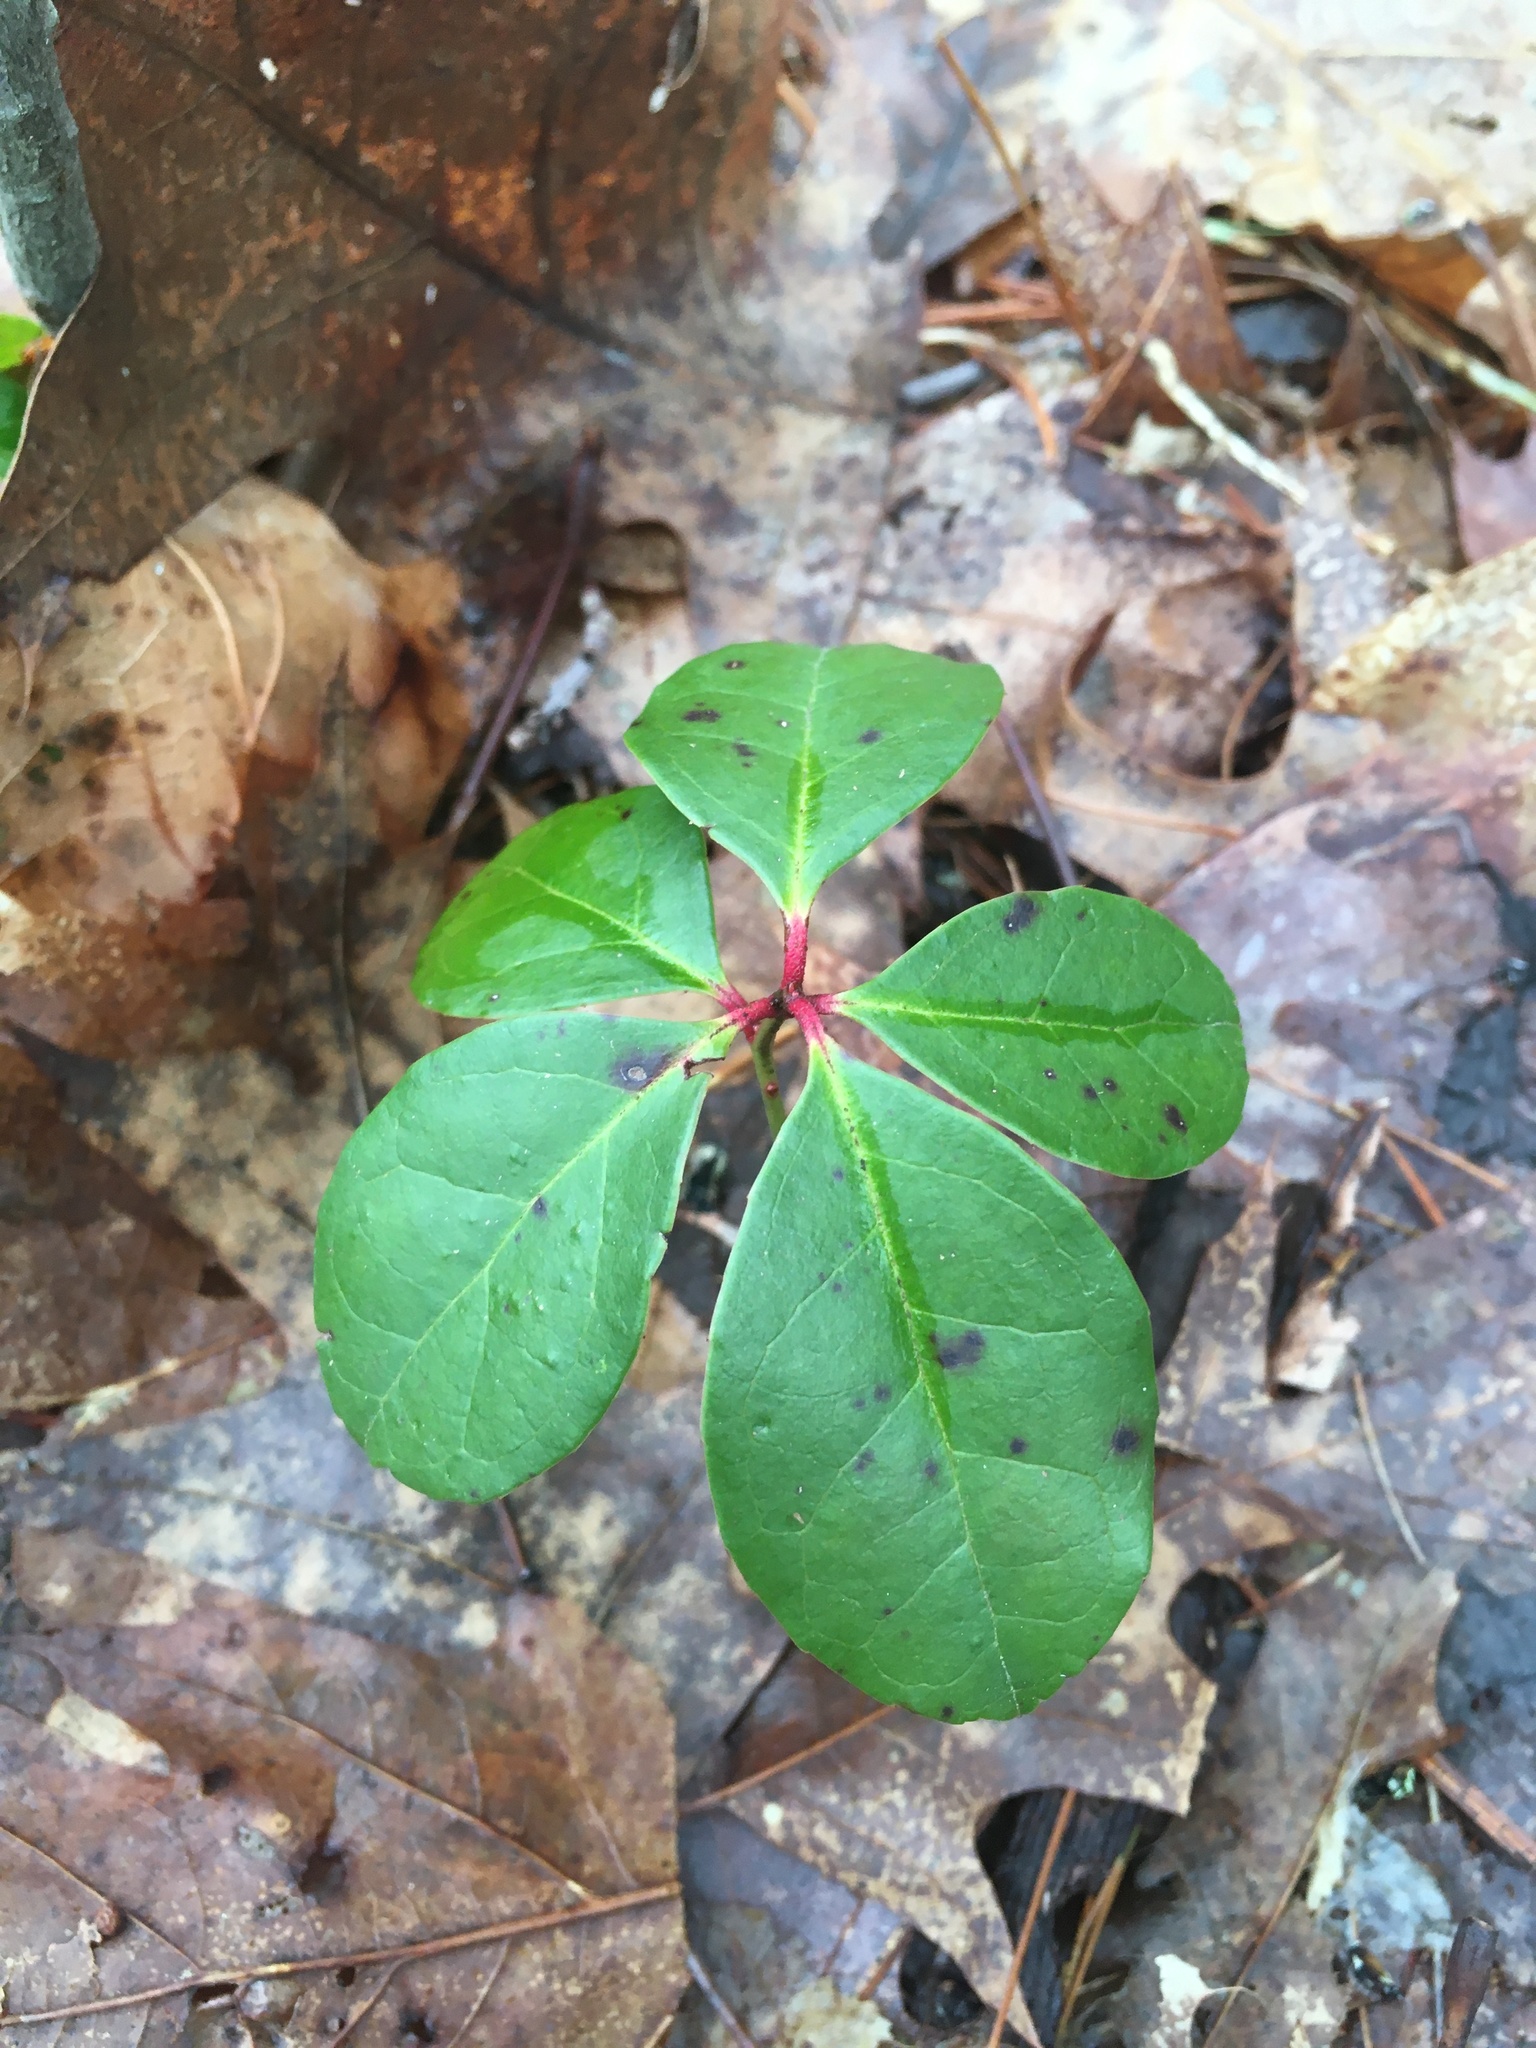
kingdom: Plantae
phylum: Tracheophyta
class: Magnoliopsida
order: Ericales
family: Ericaceae
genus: Gaultheria
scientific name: Gaultheria procumbens
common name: Checkerberry
